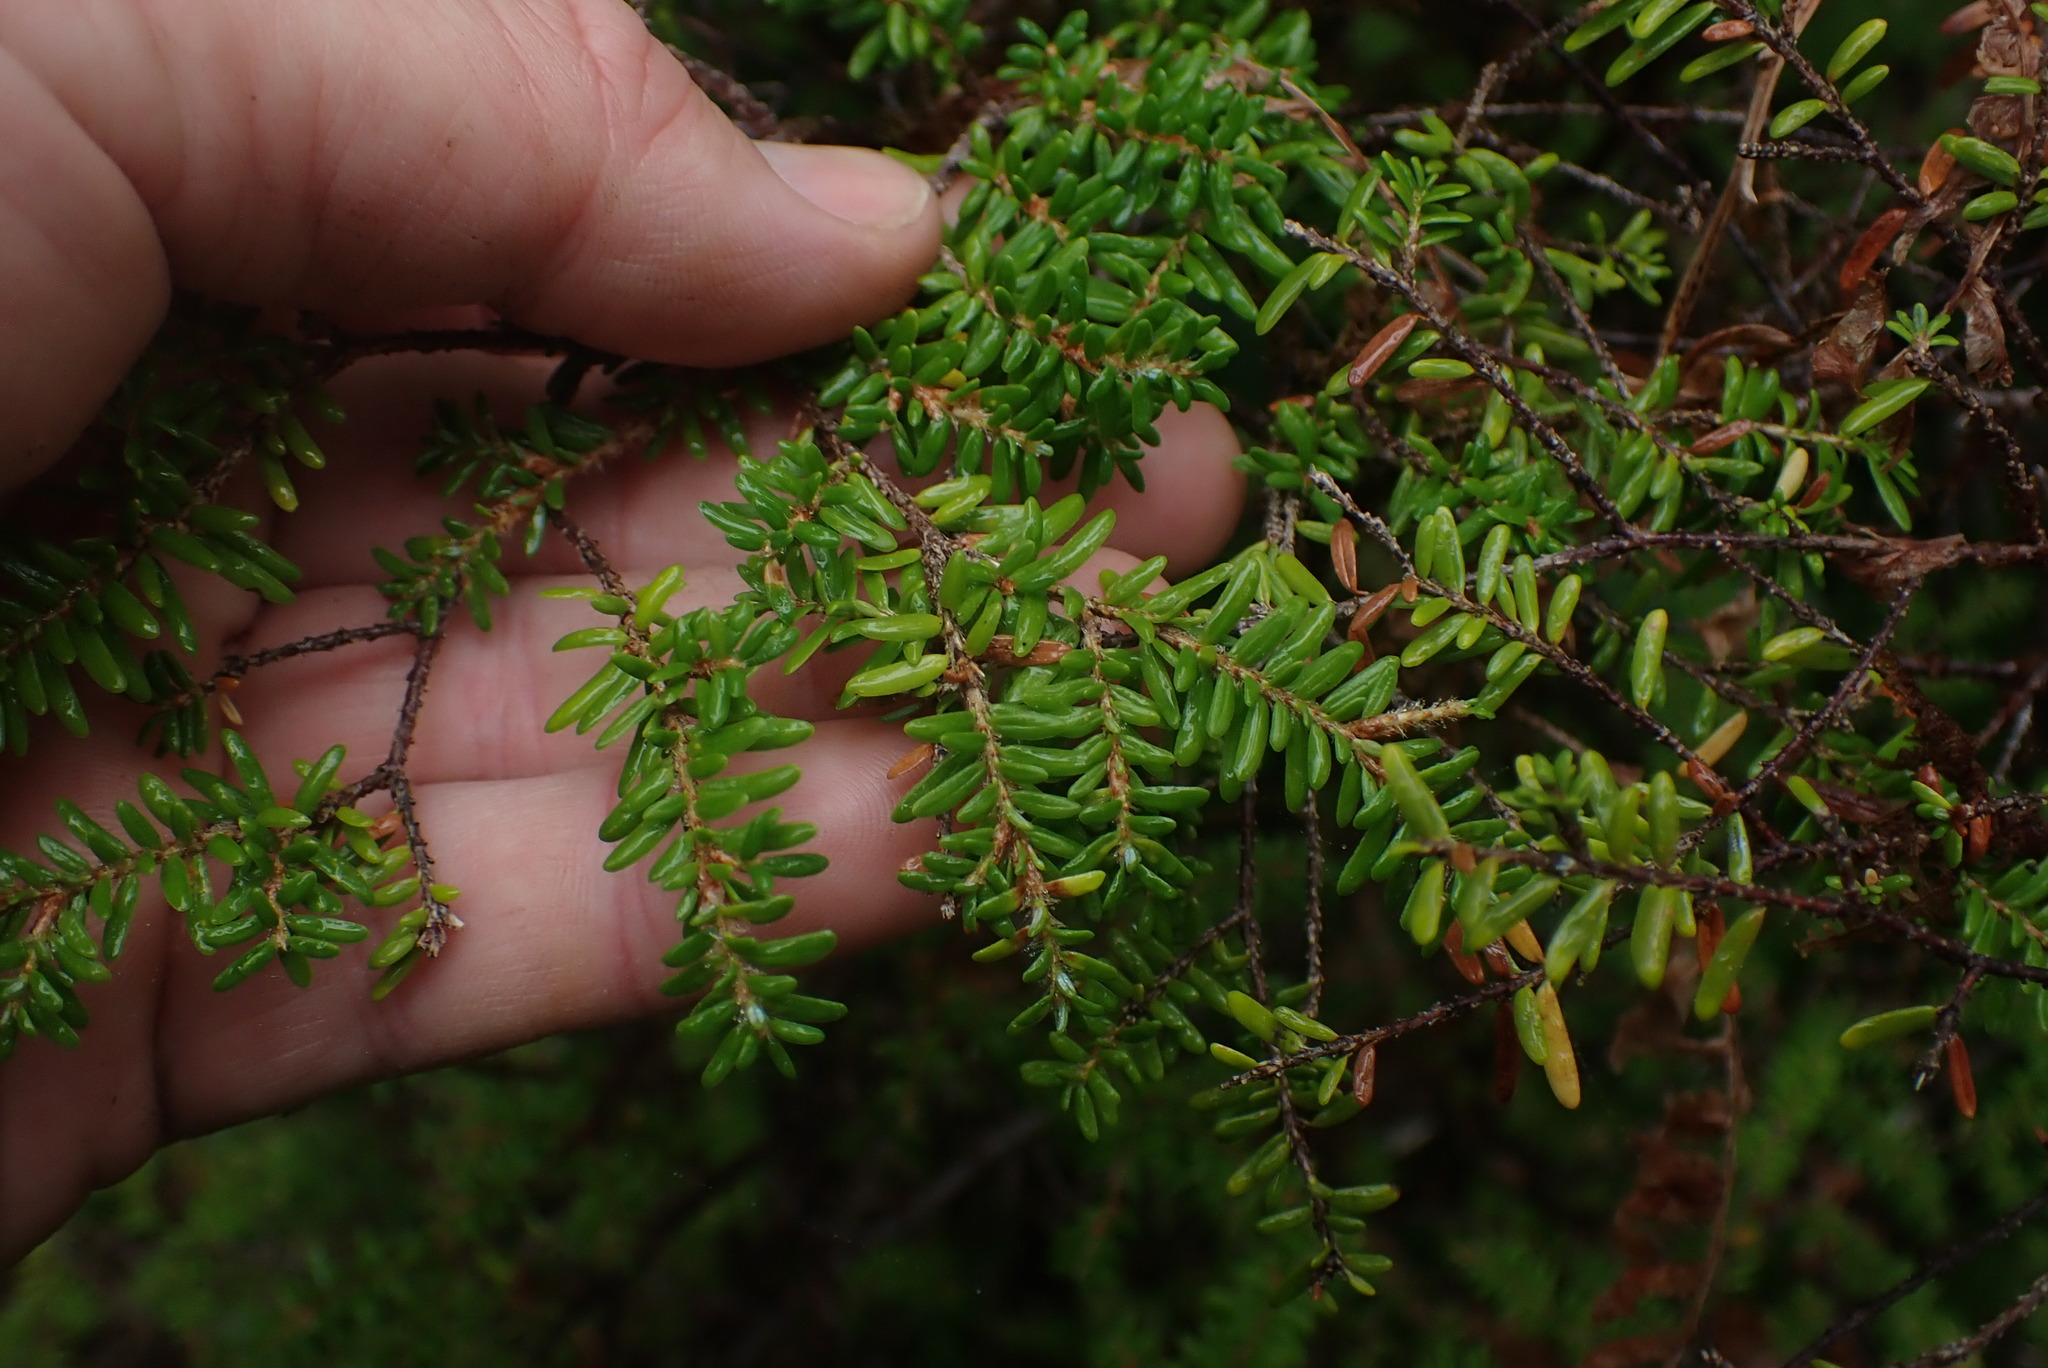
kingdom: Plantae
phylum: Tracheophyta
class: Pinopsida
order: Pinales
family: Pinaceae
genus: Tsuga
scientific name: Tsuga heterophylla
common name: Western hemlock
